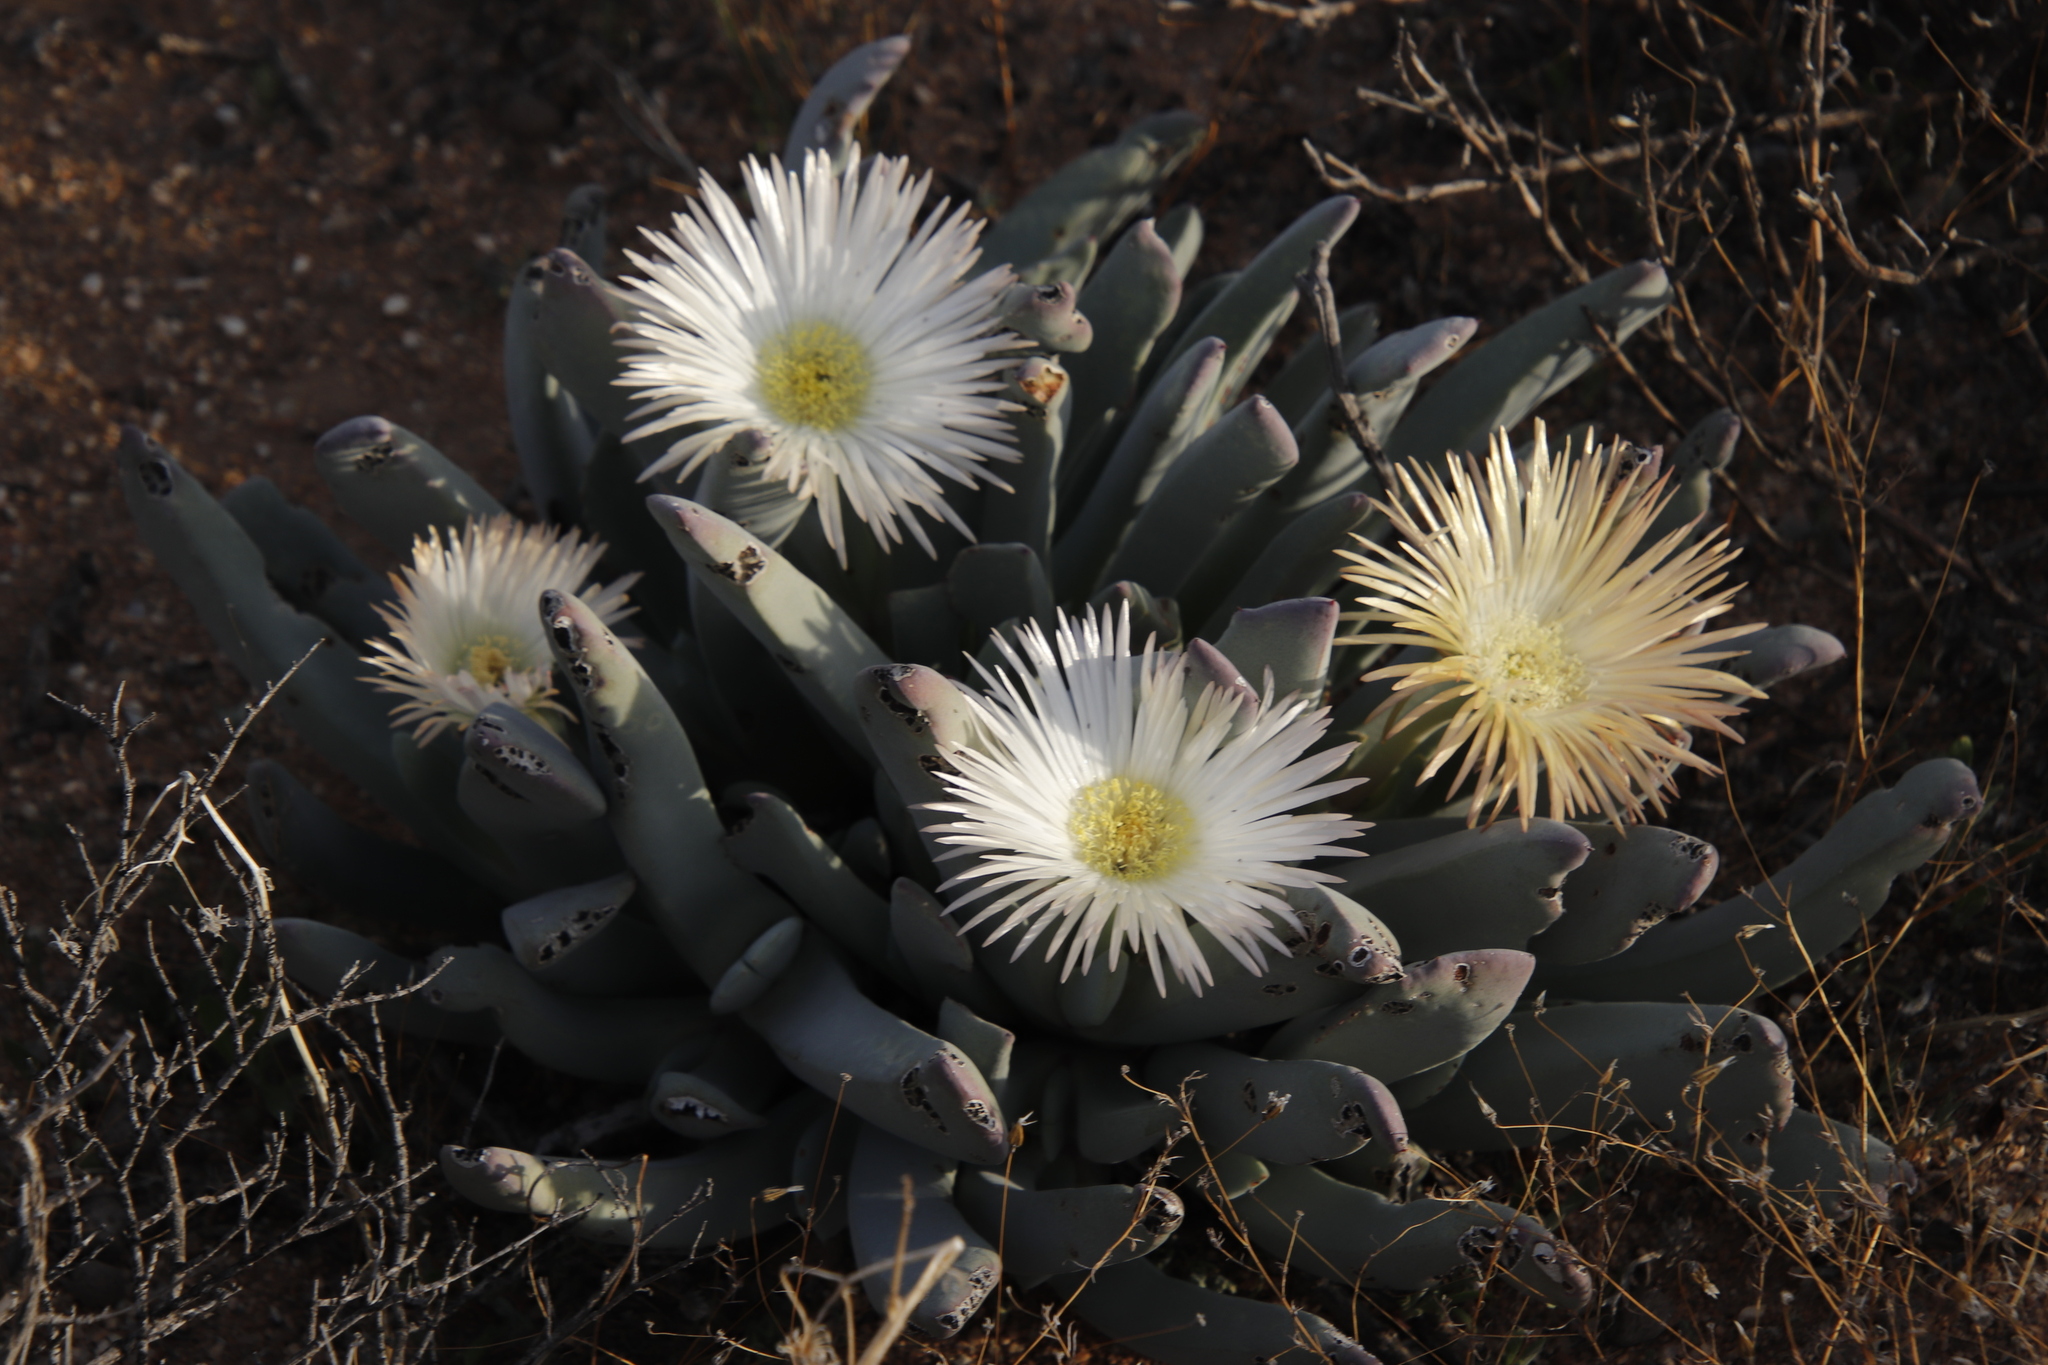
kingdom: Plantae
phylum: Tracheophyta
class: Magnoliopsida
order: Caryophyllales
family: Aizoaceae
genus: Cheiridopsis
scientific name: Cheiridopsis denticulata
